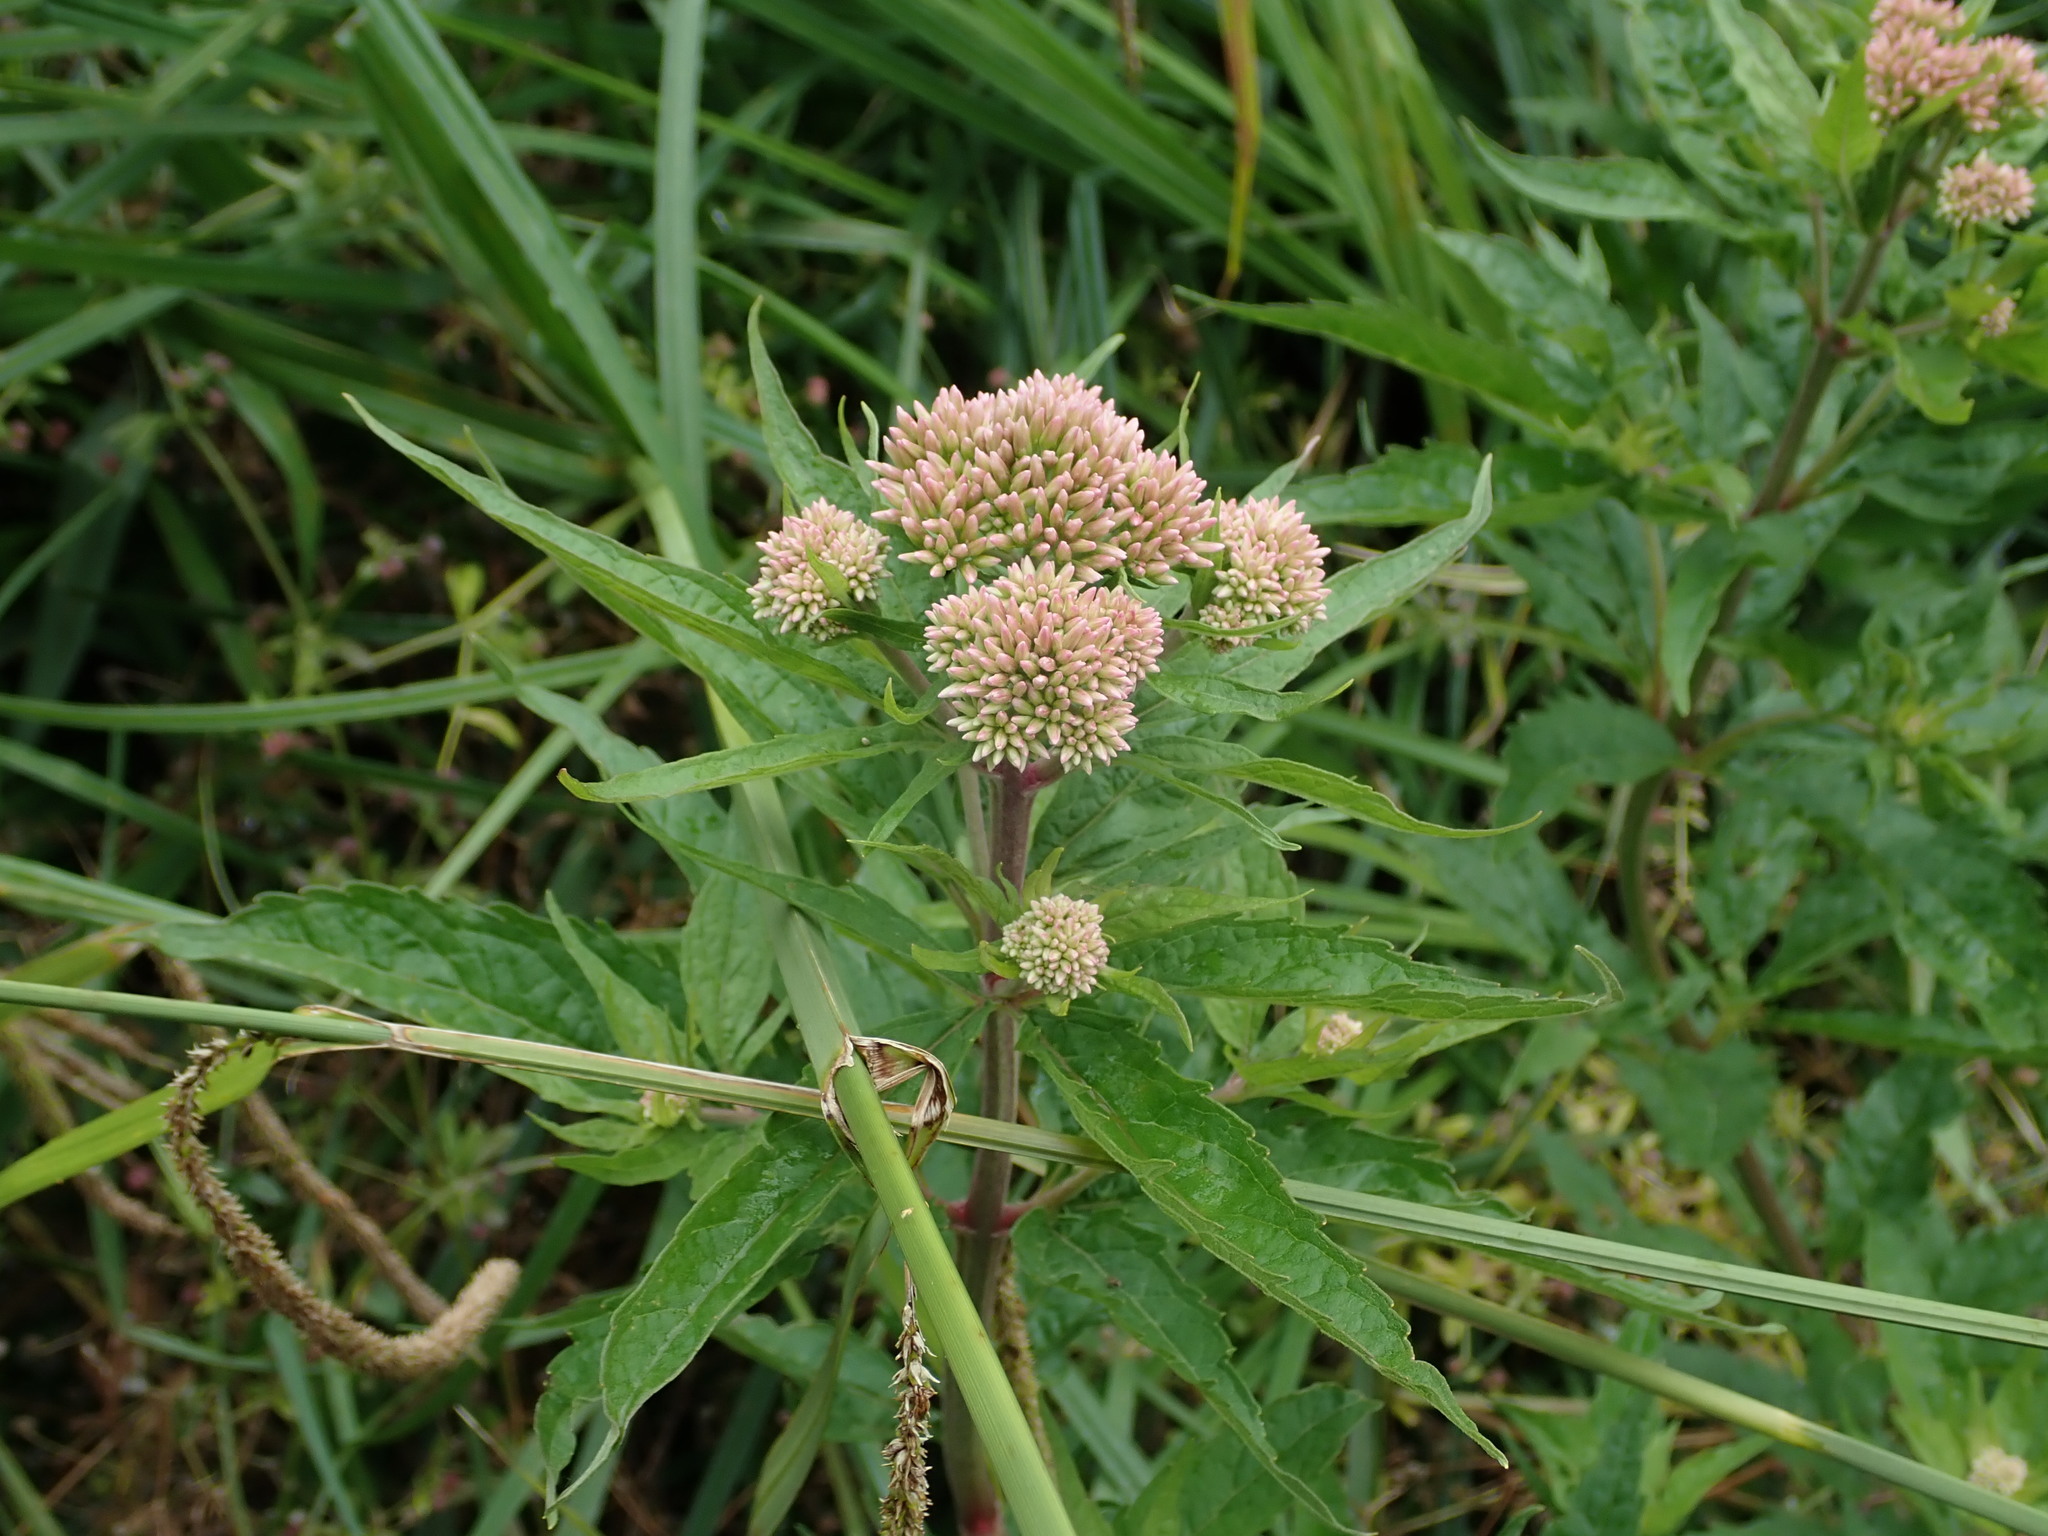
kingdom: Plantae
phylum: Tracheophyta
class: Magnoliopsida
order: Asterales
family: Asteraceae
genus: Eupatorium
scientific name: Eupatorium cannabinum
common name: Hemp-agrimony
